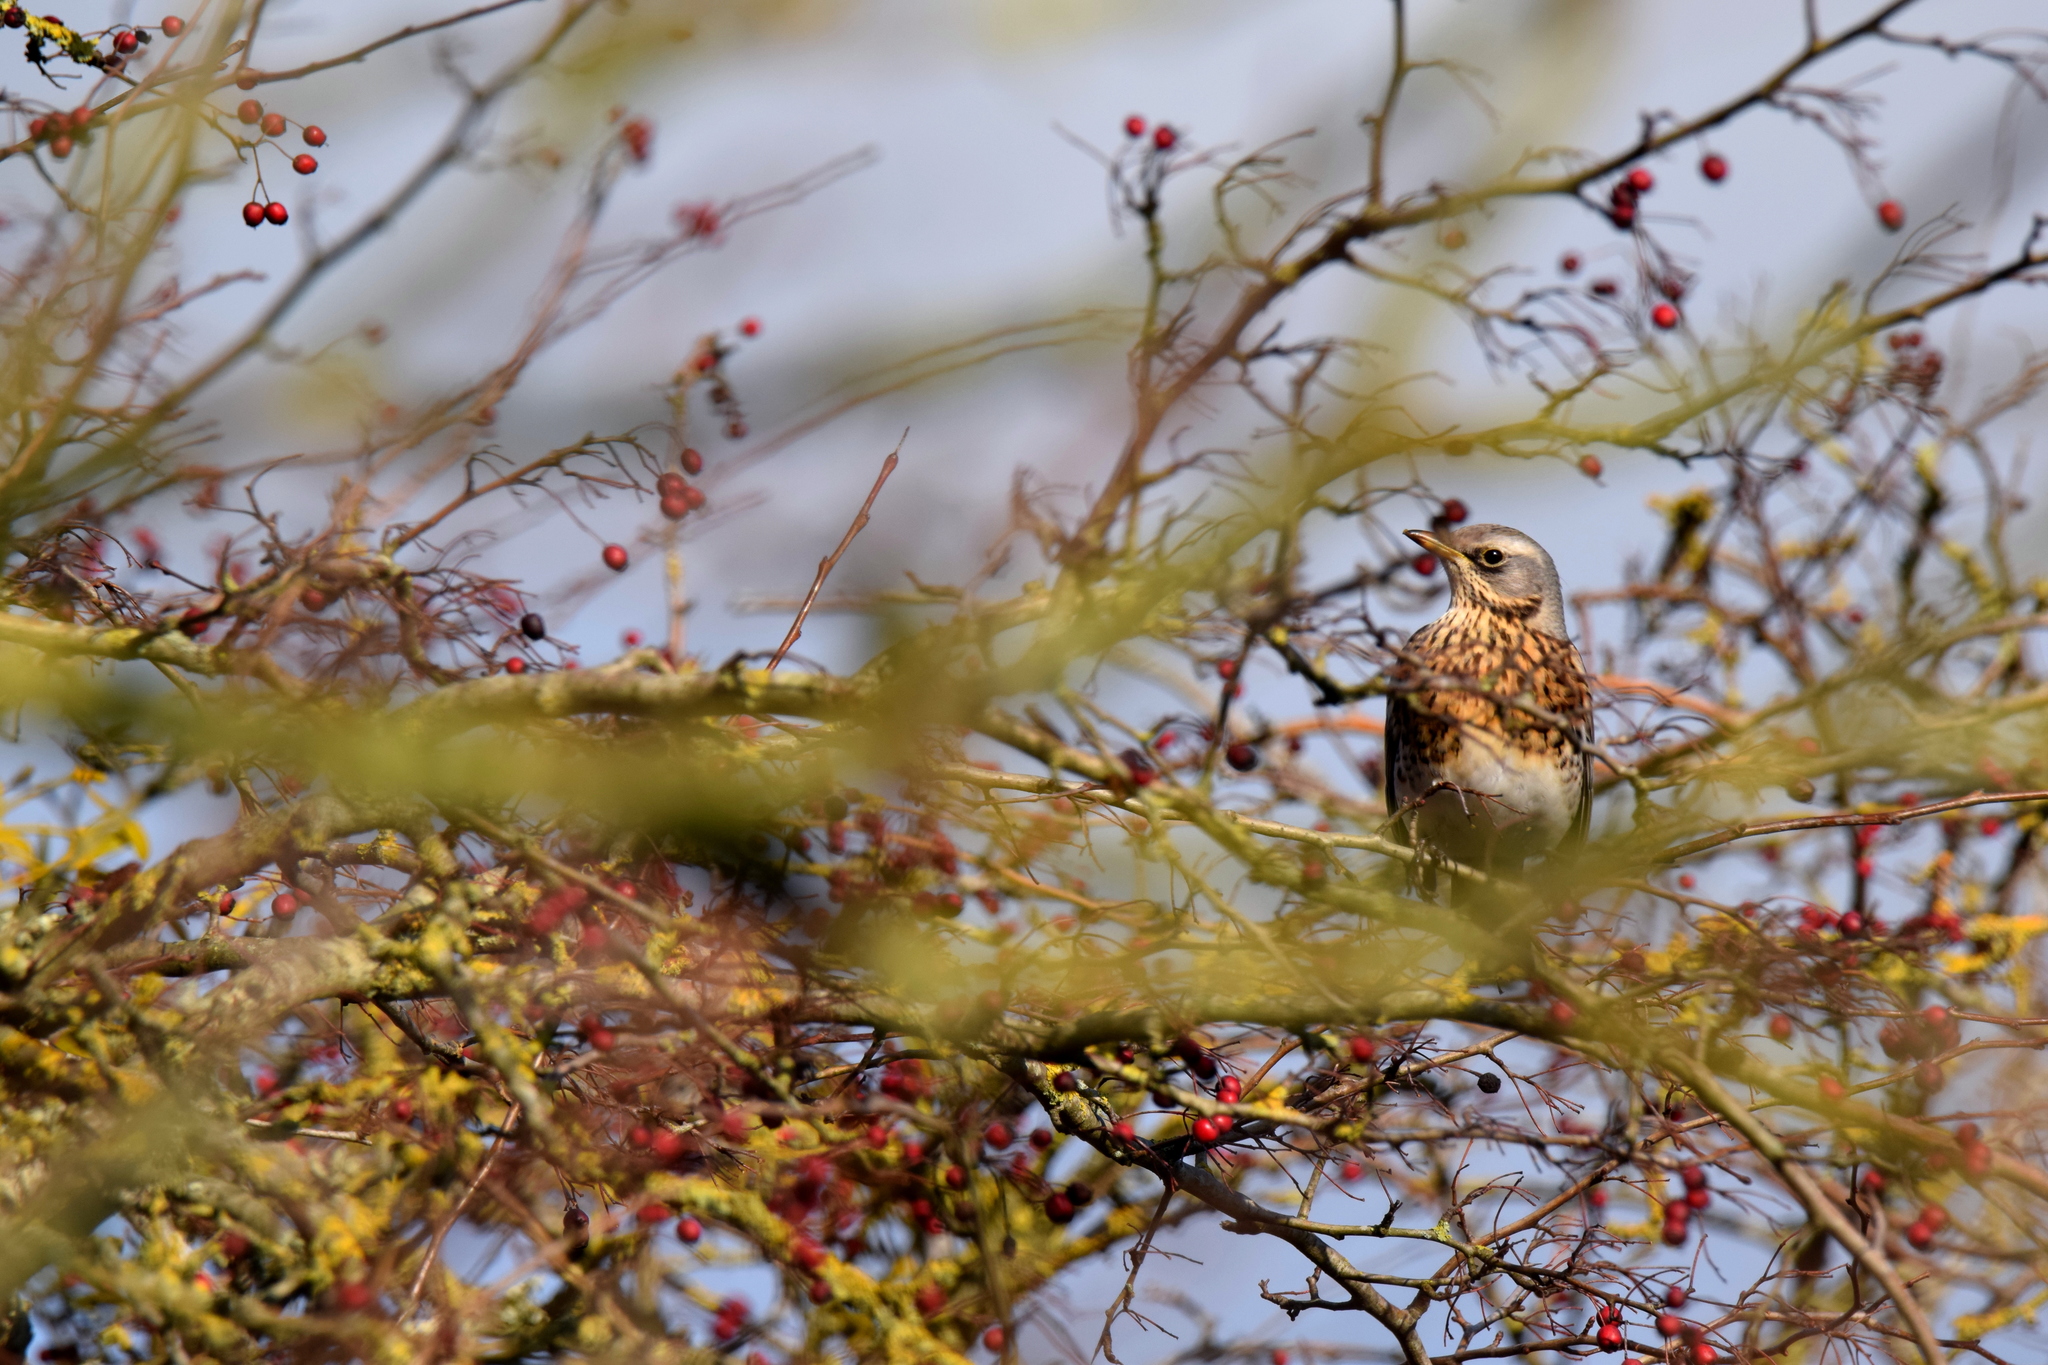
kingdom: Animalia
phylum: Chordata
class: Aves
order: Passeriformes
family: Turdidae
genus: Turdus
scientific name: Turdus pilaris
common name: Fieldfare
